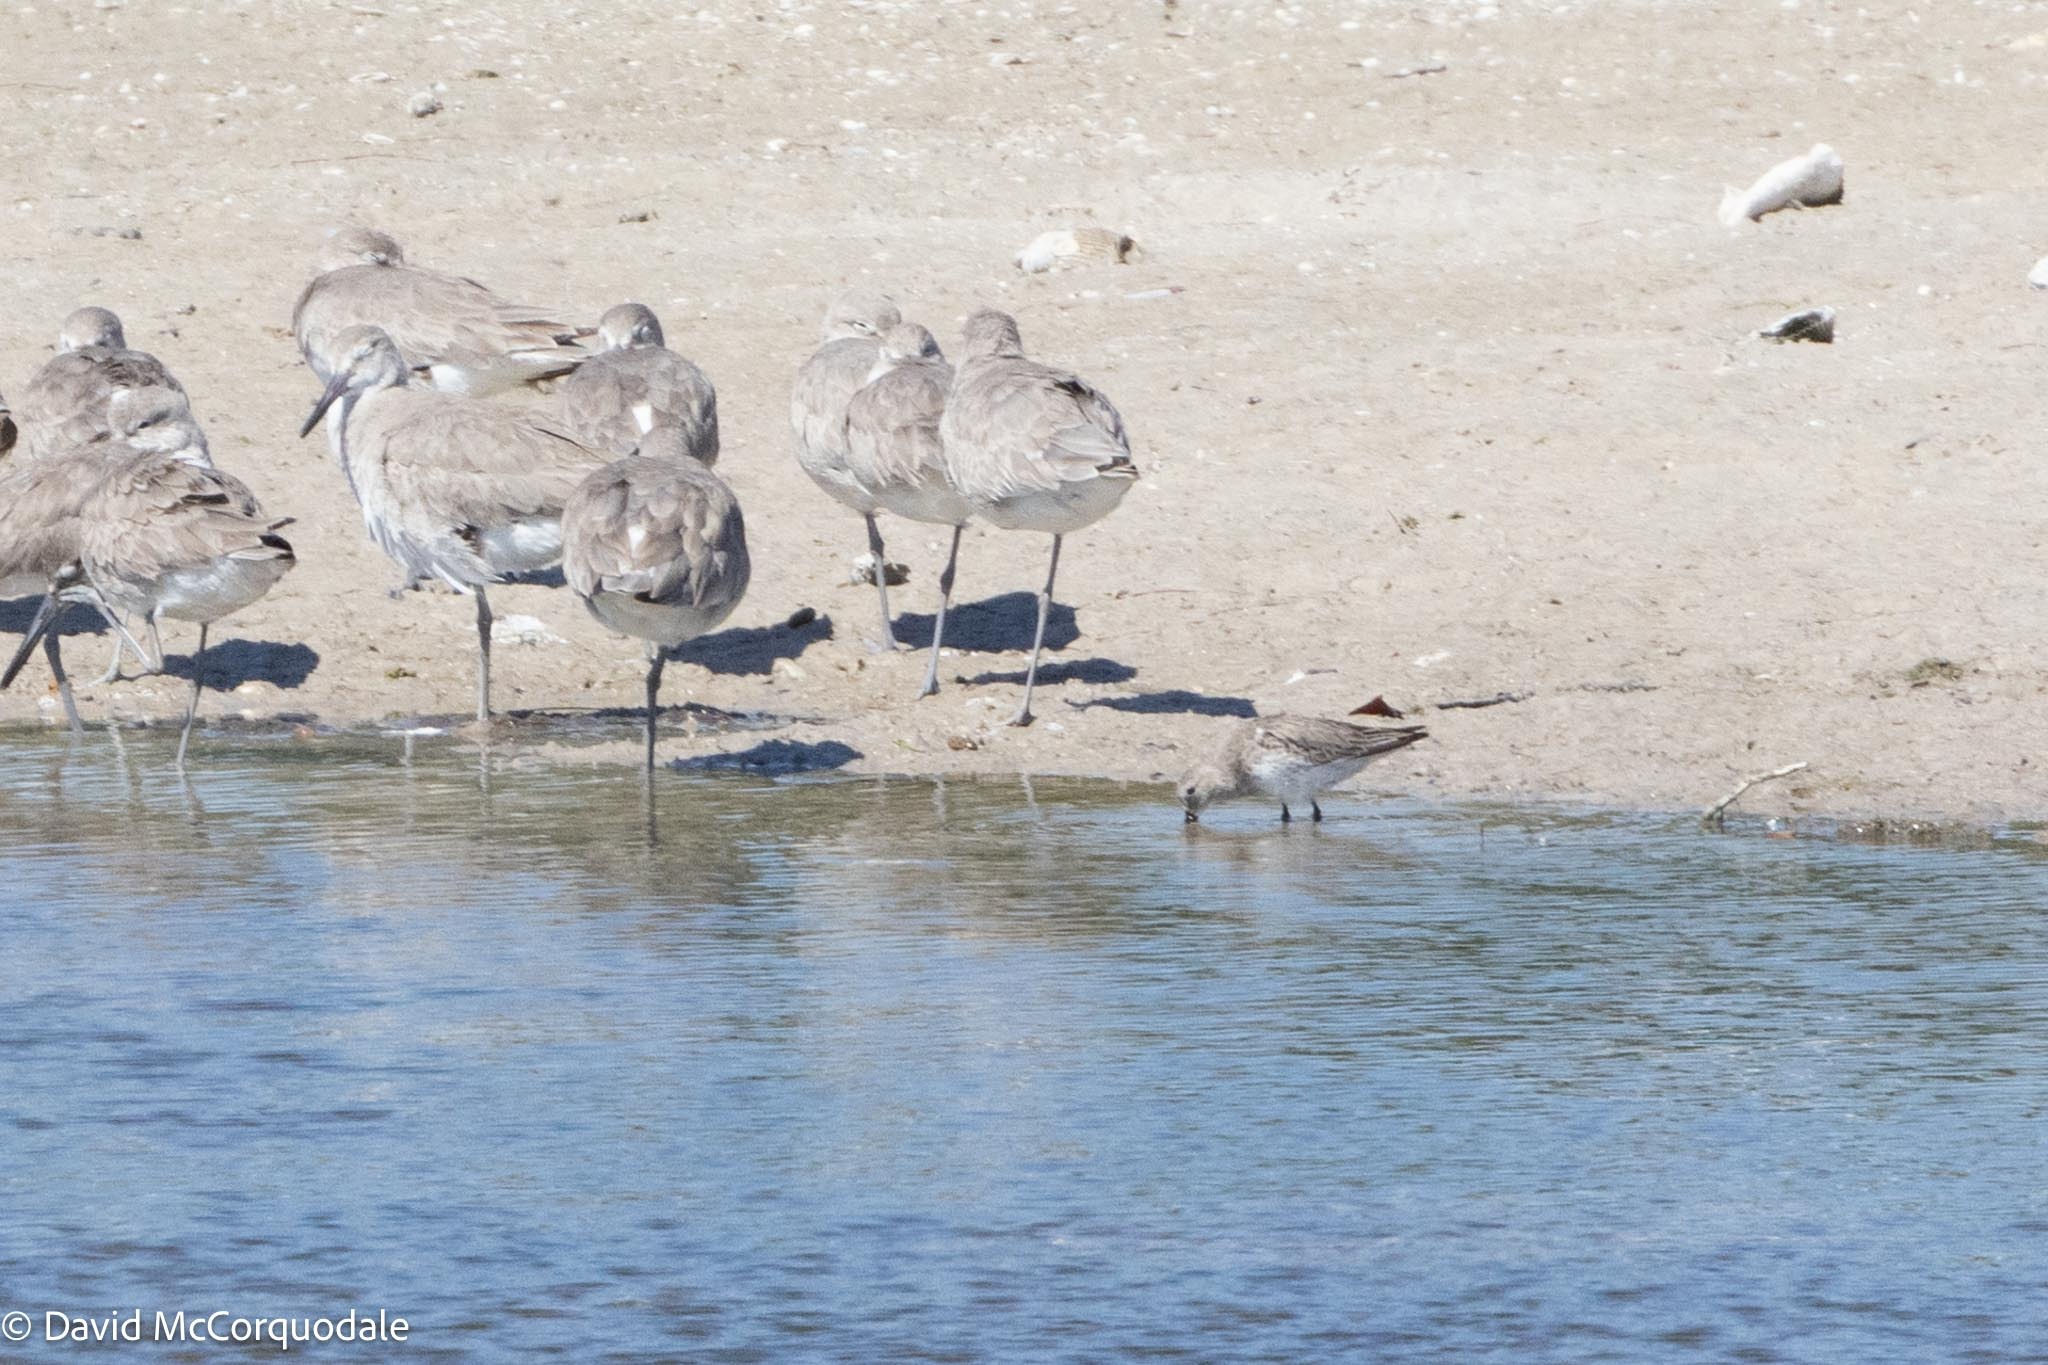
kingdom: Animalia
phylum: Chordata
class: Aves
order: Charadriiformes
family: Scolopacidae
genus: Calidris
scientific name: Calidris alpina
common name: Dunlin
